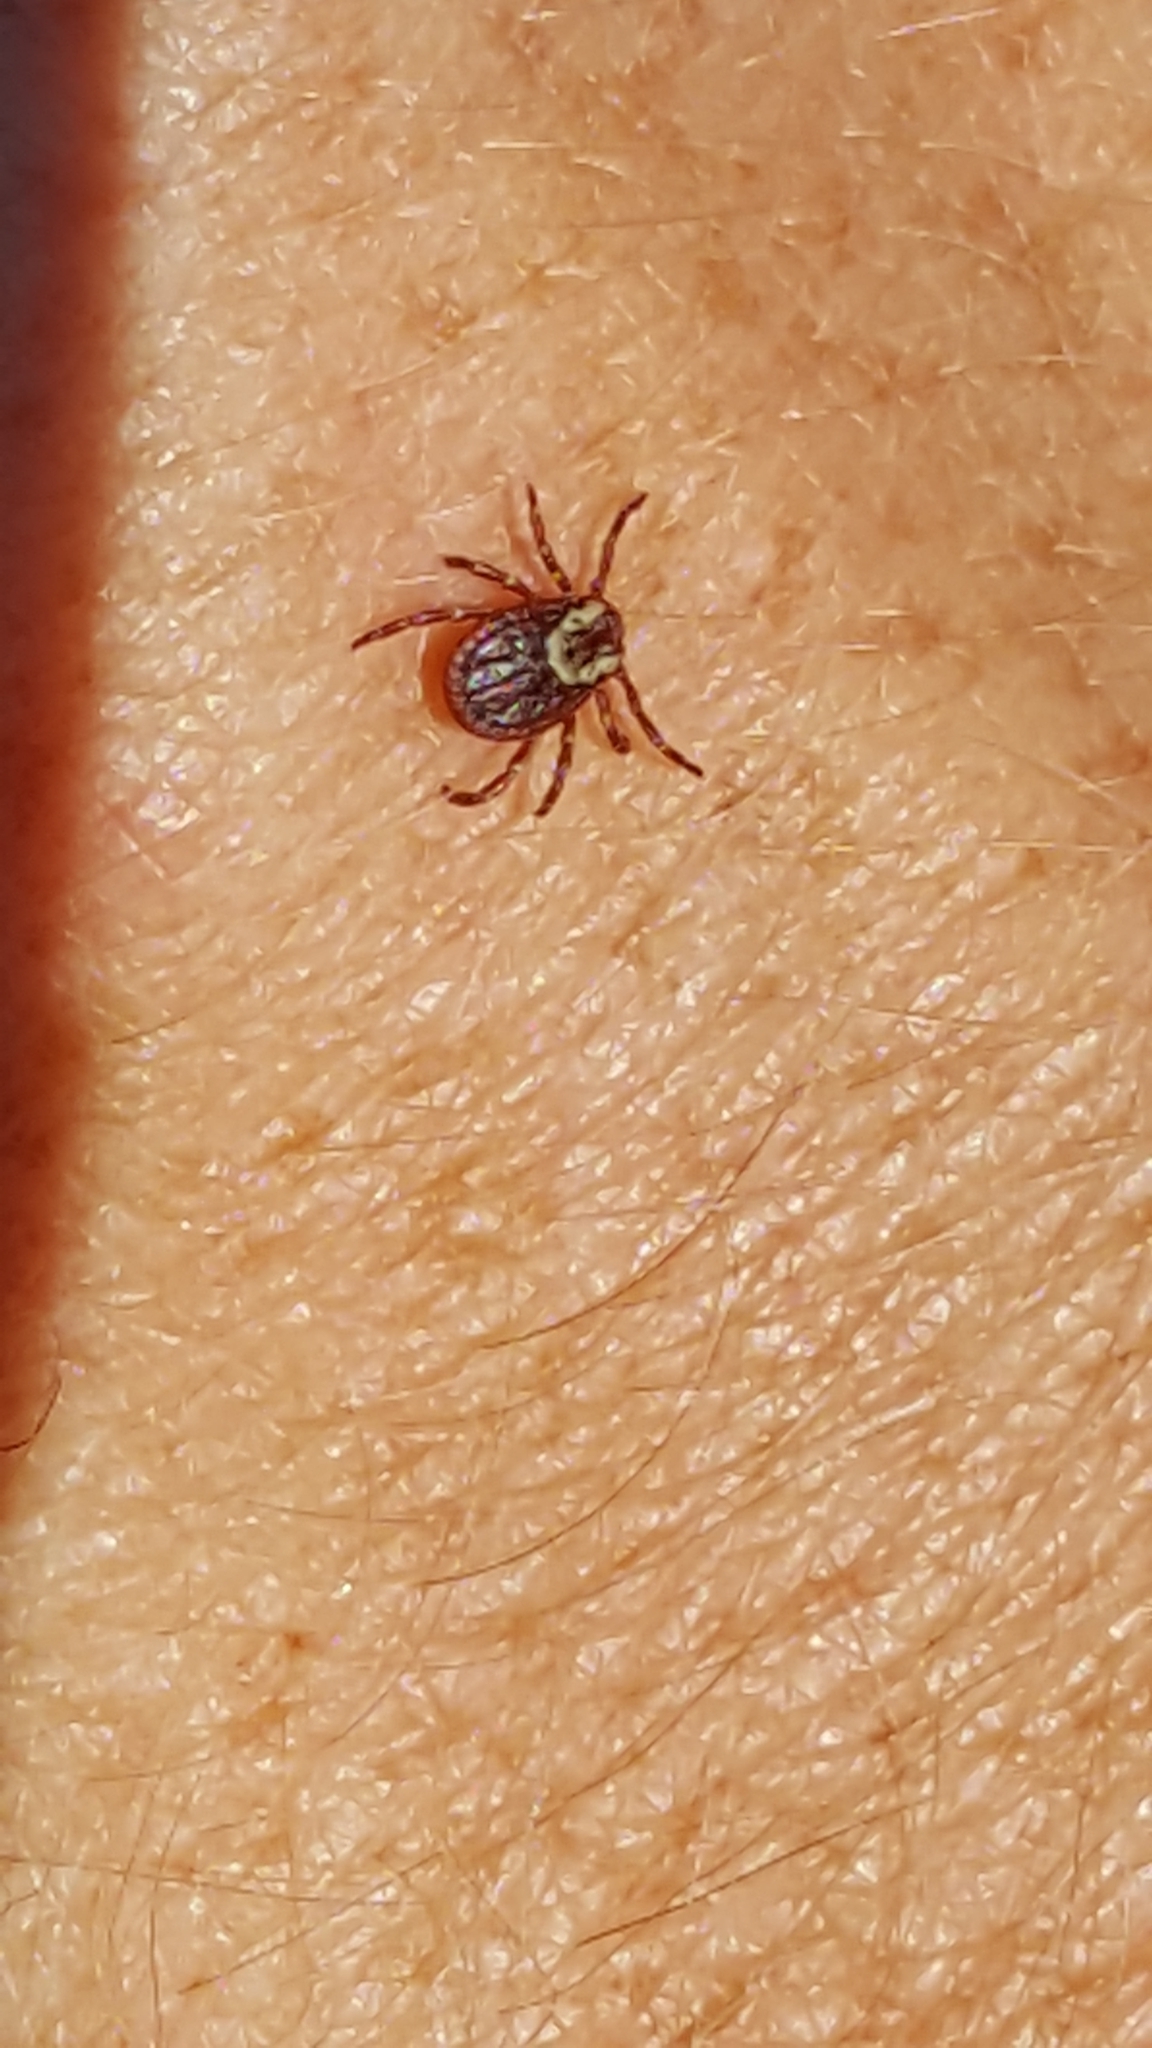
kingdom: Animalia
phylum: Arthropoda
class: Arachnida
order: Ixodida
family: Ixodidae
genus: Dermacentor
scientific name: Dermacentor variabilis
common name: American dog tick
